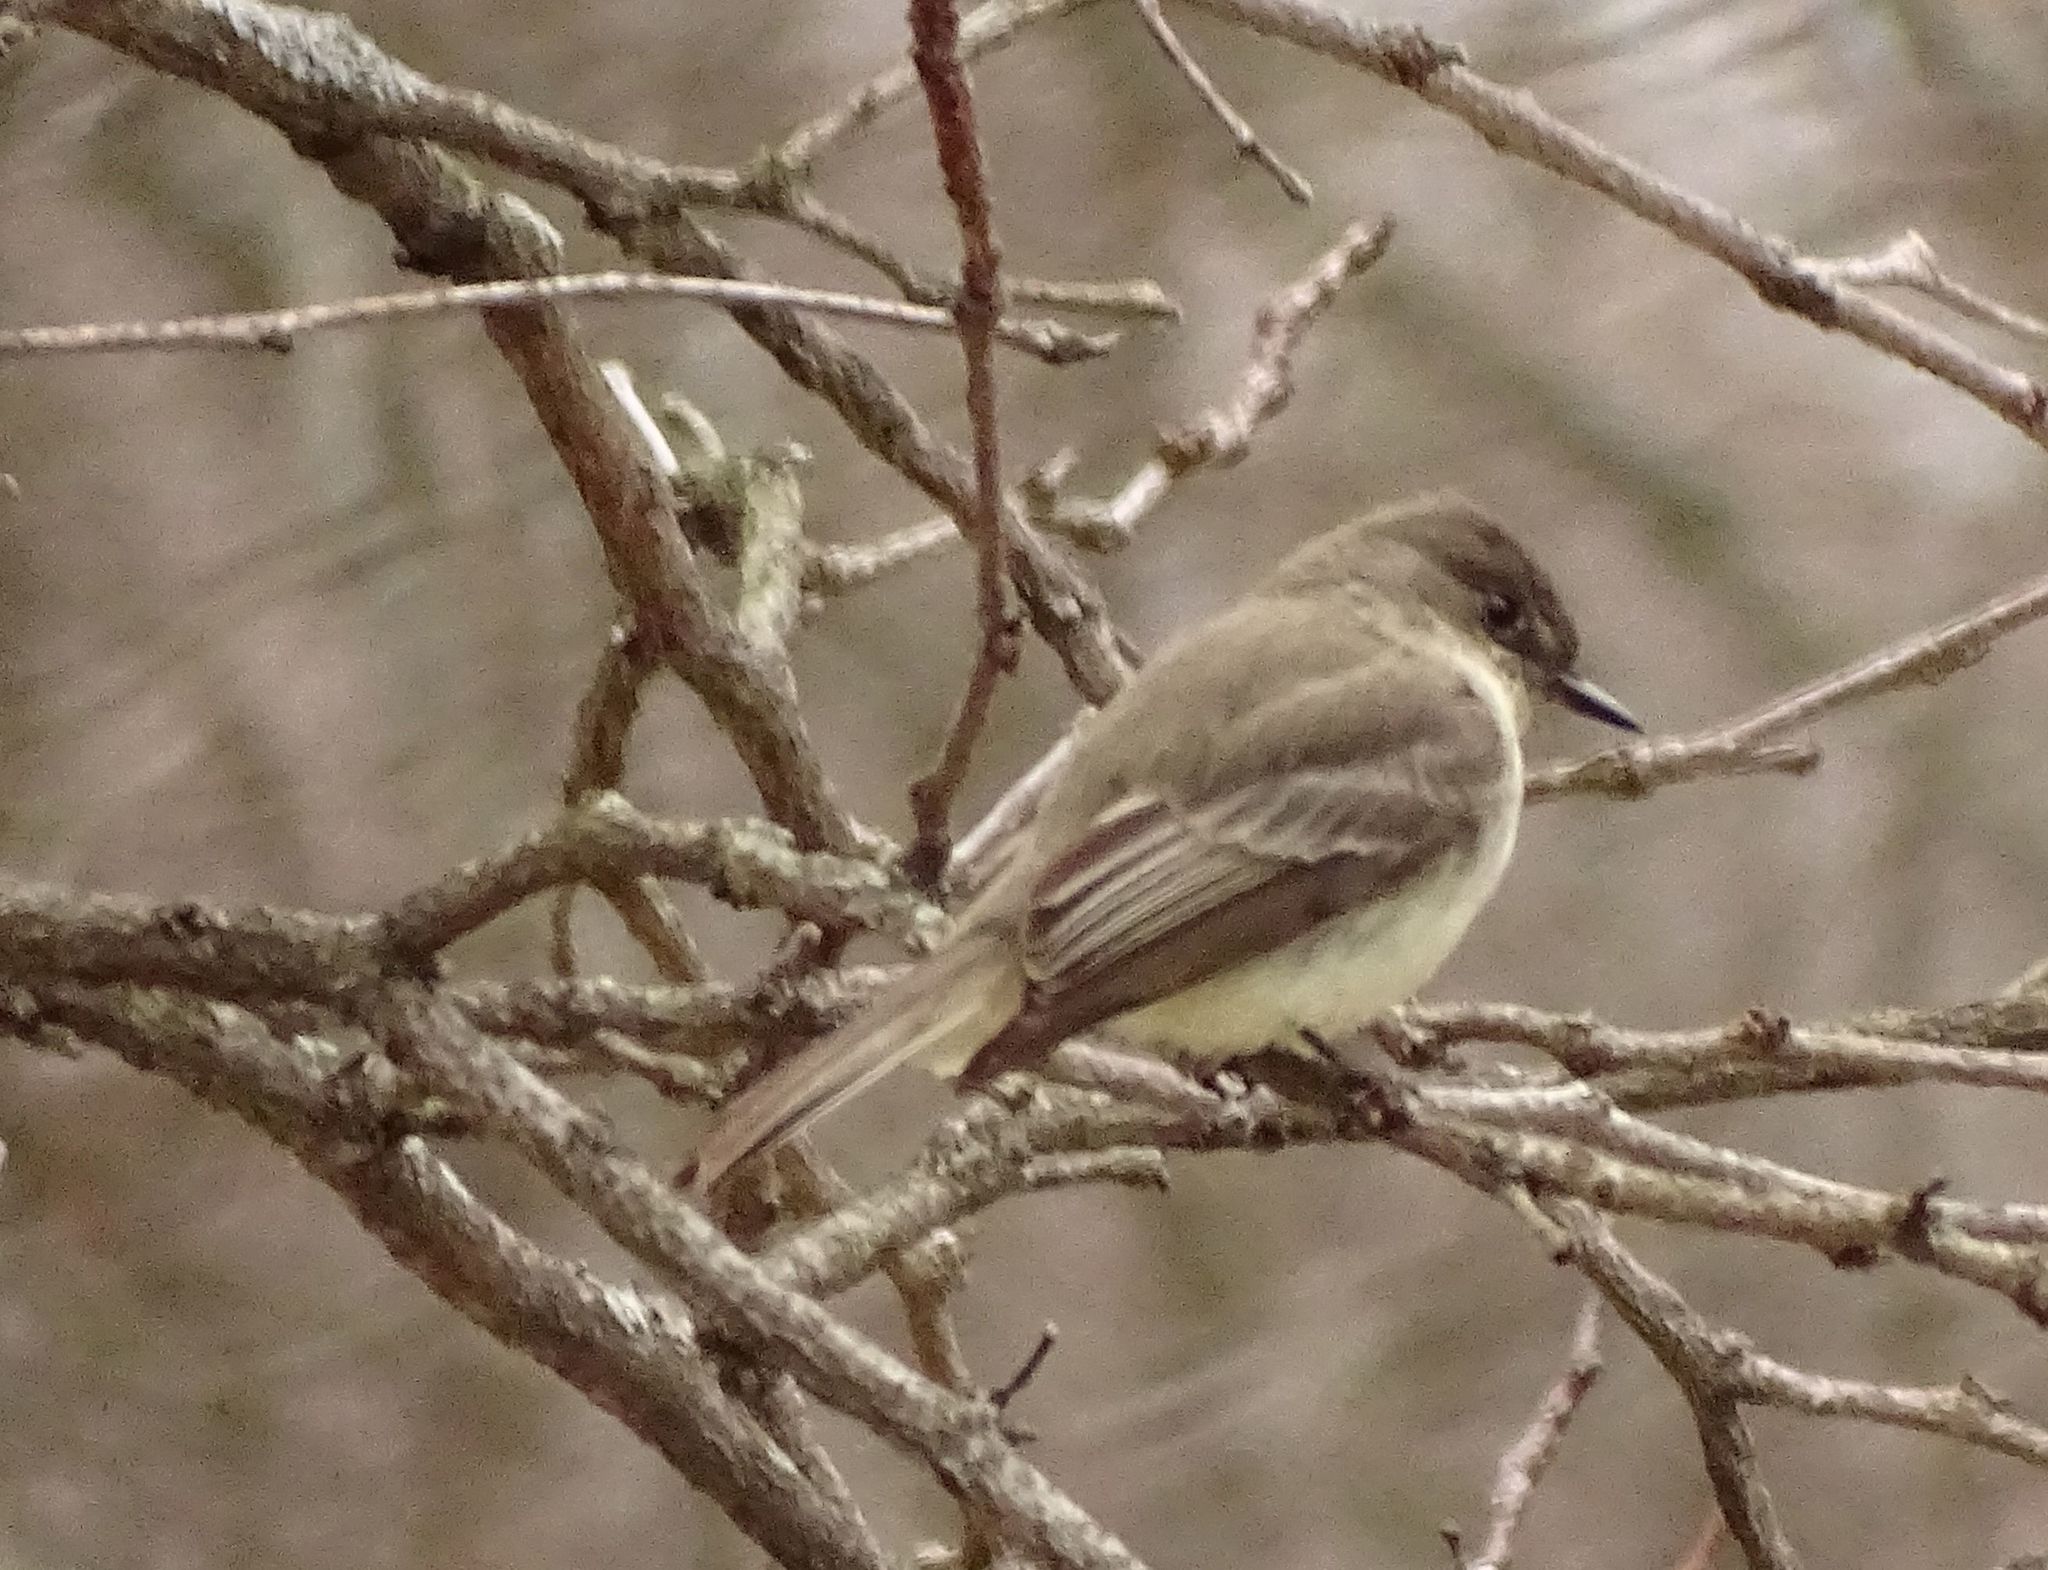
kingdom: Animalia
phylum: Chordata
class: Aves
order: Passeriformes
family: Tyrannidae
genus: Sayornis
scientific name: Sayornis phoebe
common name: Eastern phoebe
